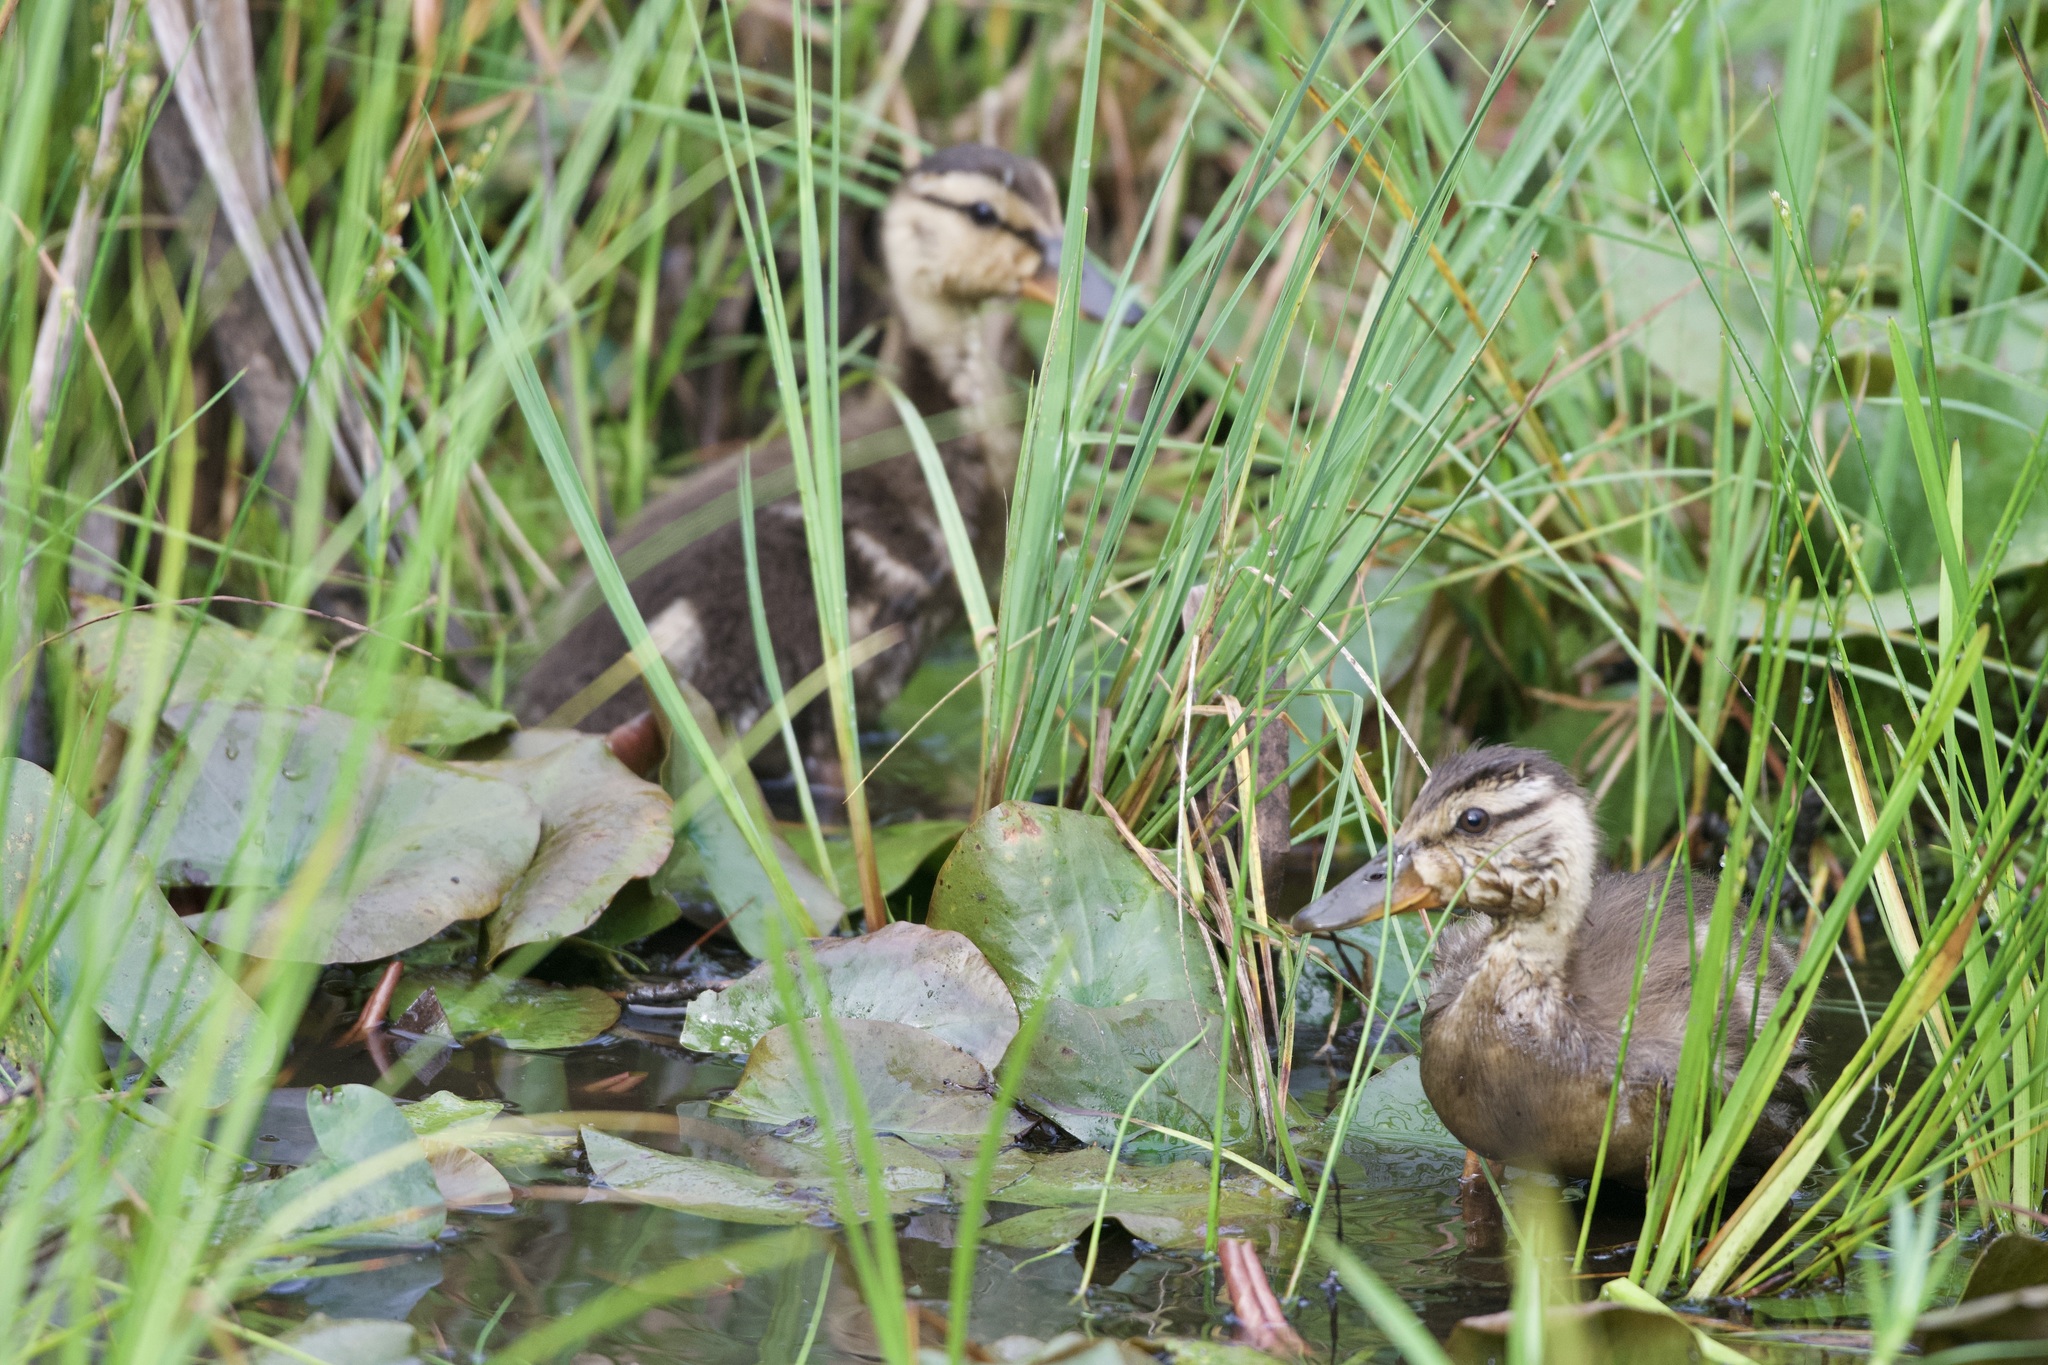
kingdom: Animalia
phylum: Chordata
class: Aves
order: Anseriformes
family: Anatidae
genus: Anas
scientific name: Anas platyrhynchos
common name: Mallard
